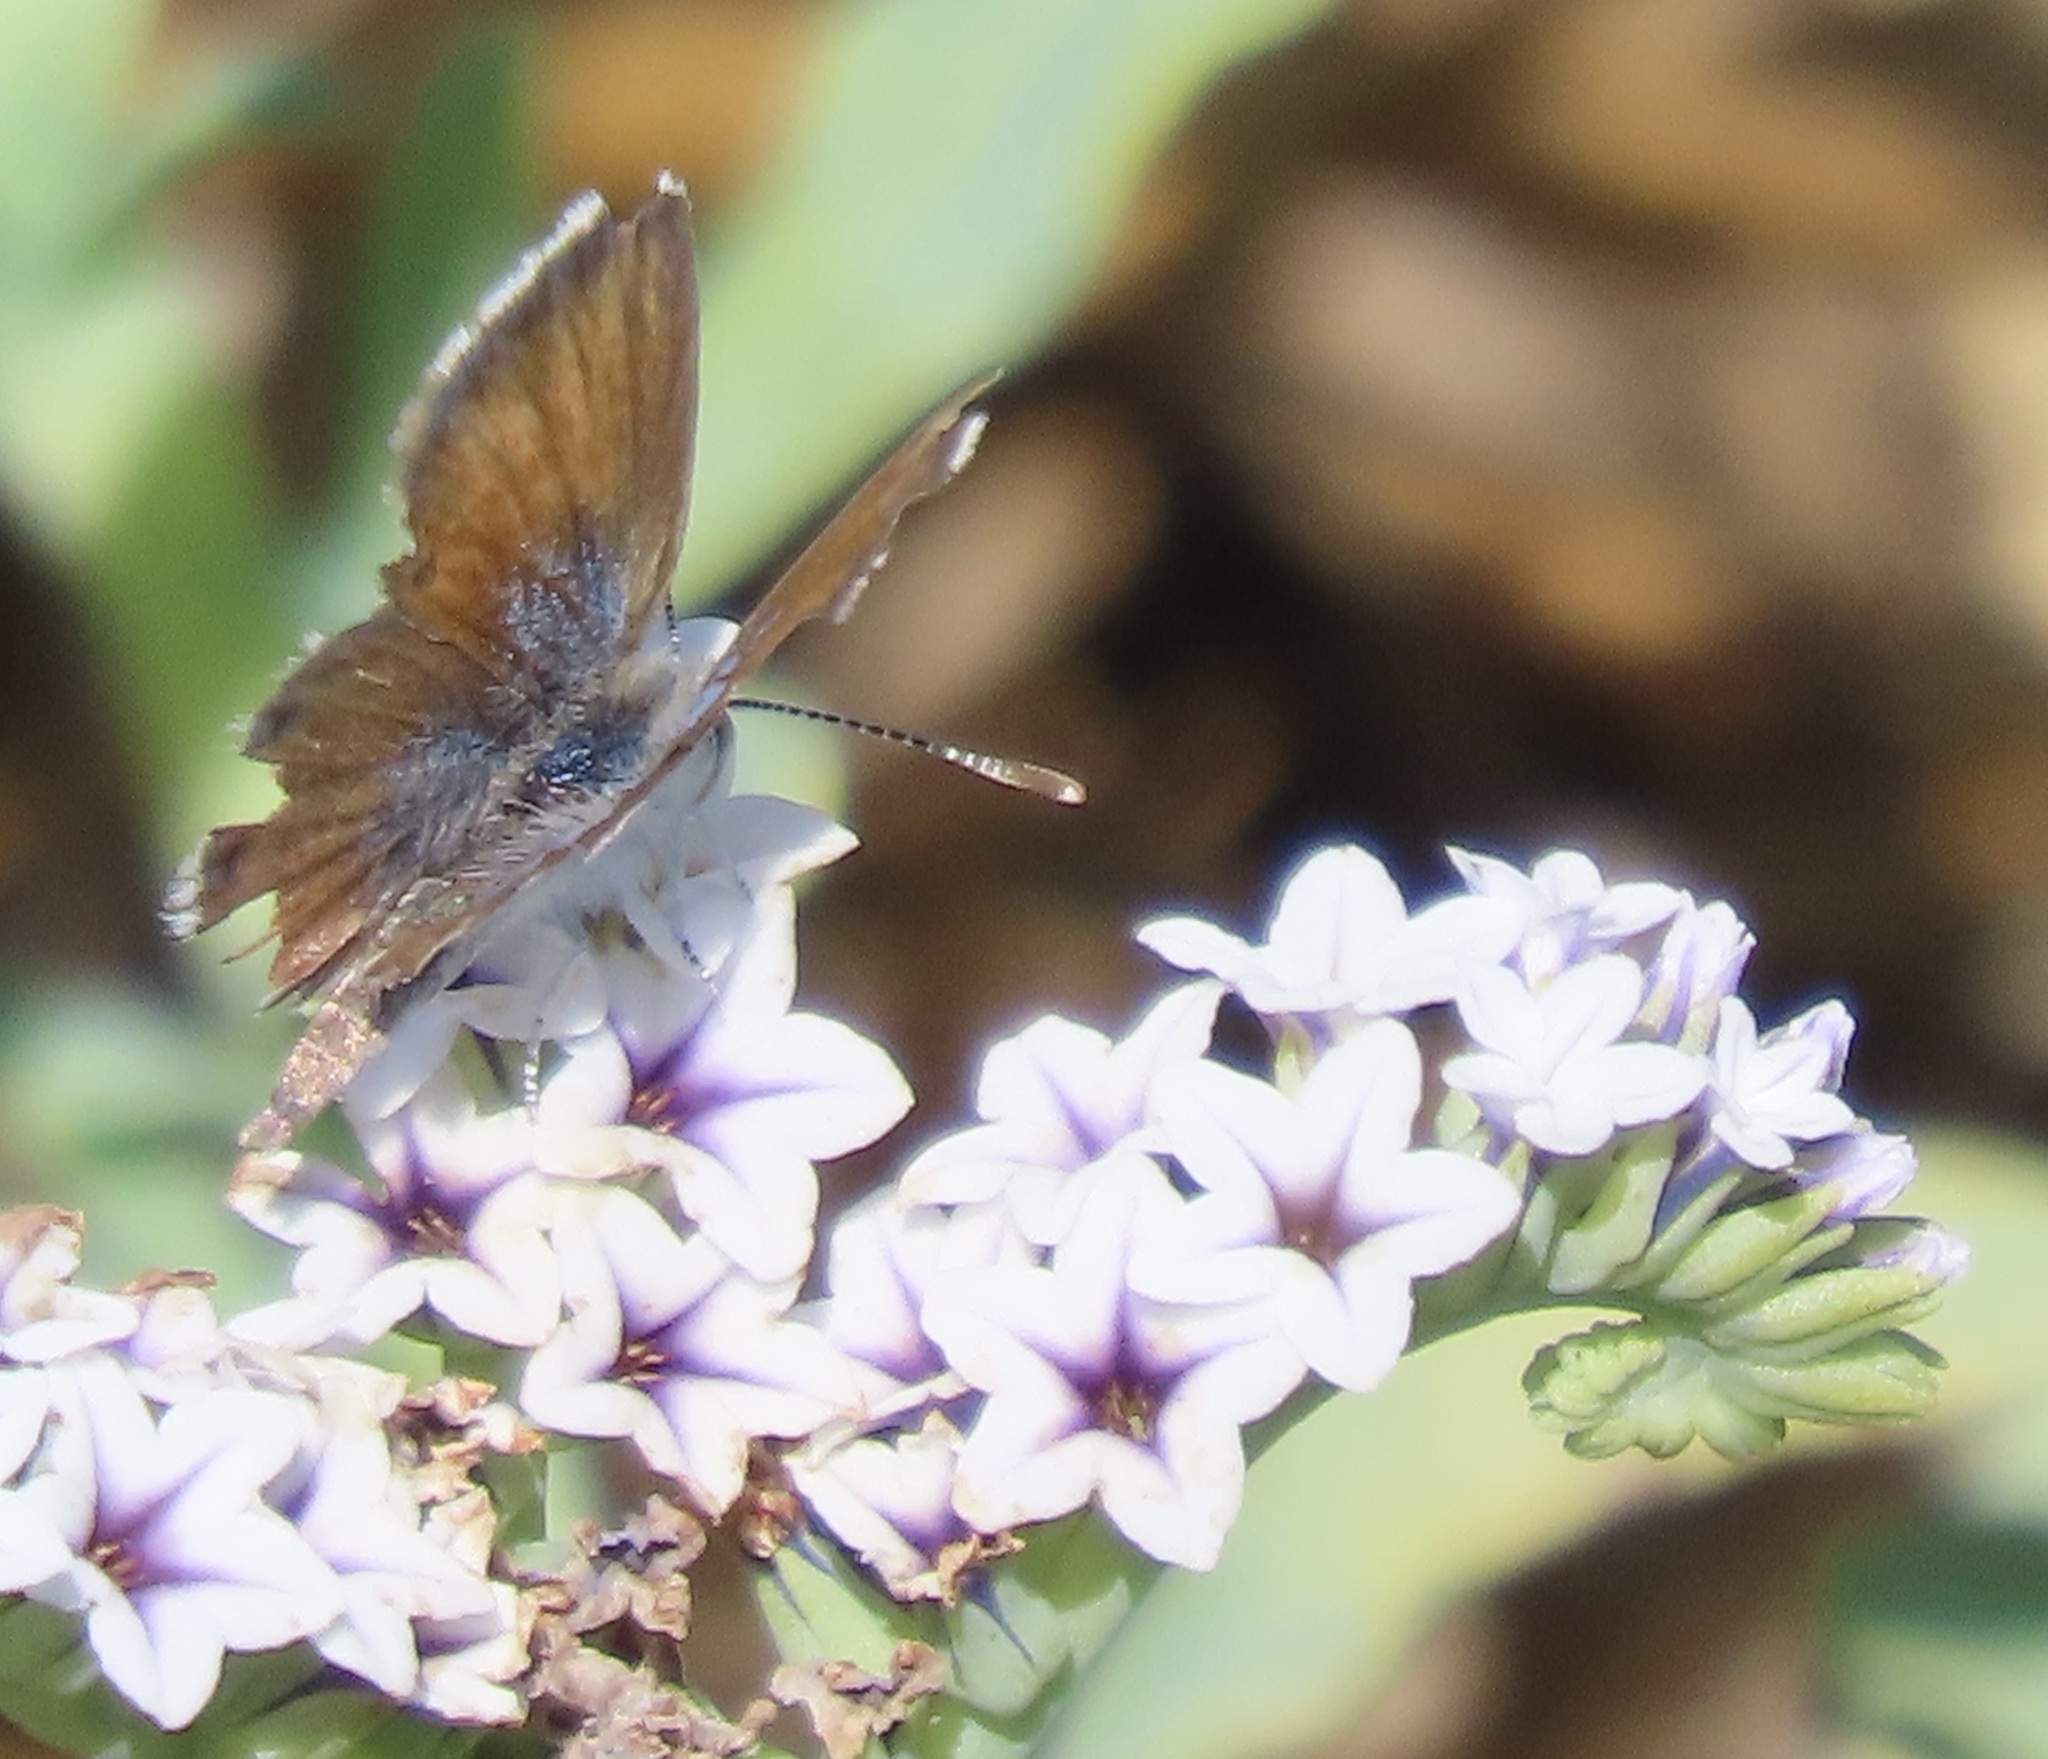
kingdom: Animalia
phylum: Arthropoda
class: Insecta
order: Lepidoptera
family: Lycaenidae
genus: Brephidium
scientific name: Brephidium exilis
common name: Pygmy blue
